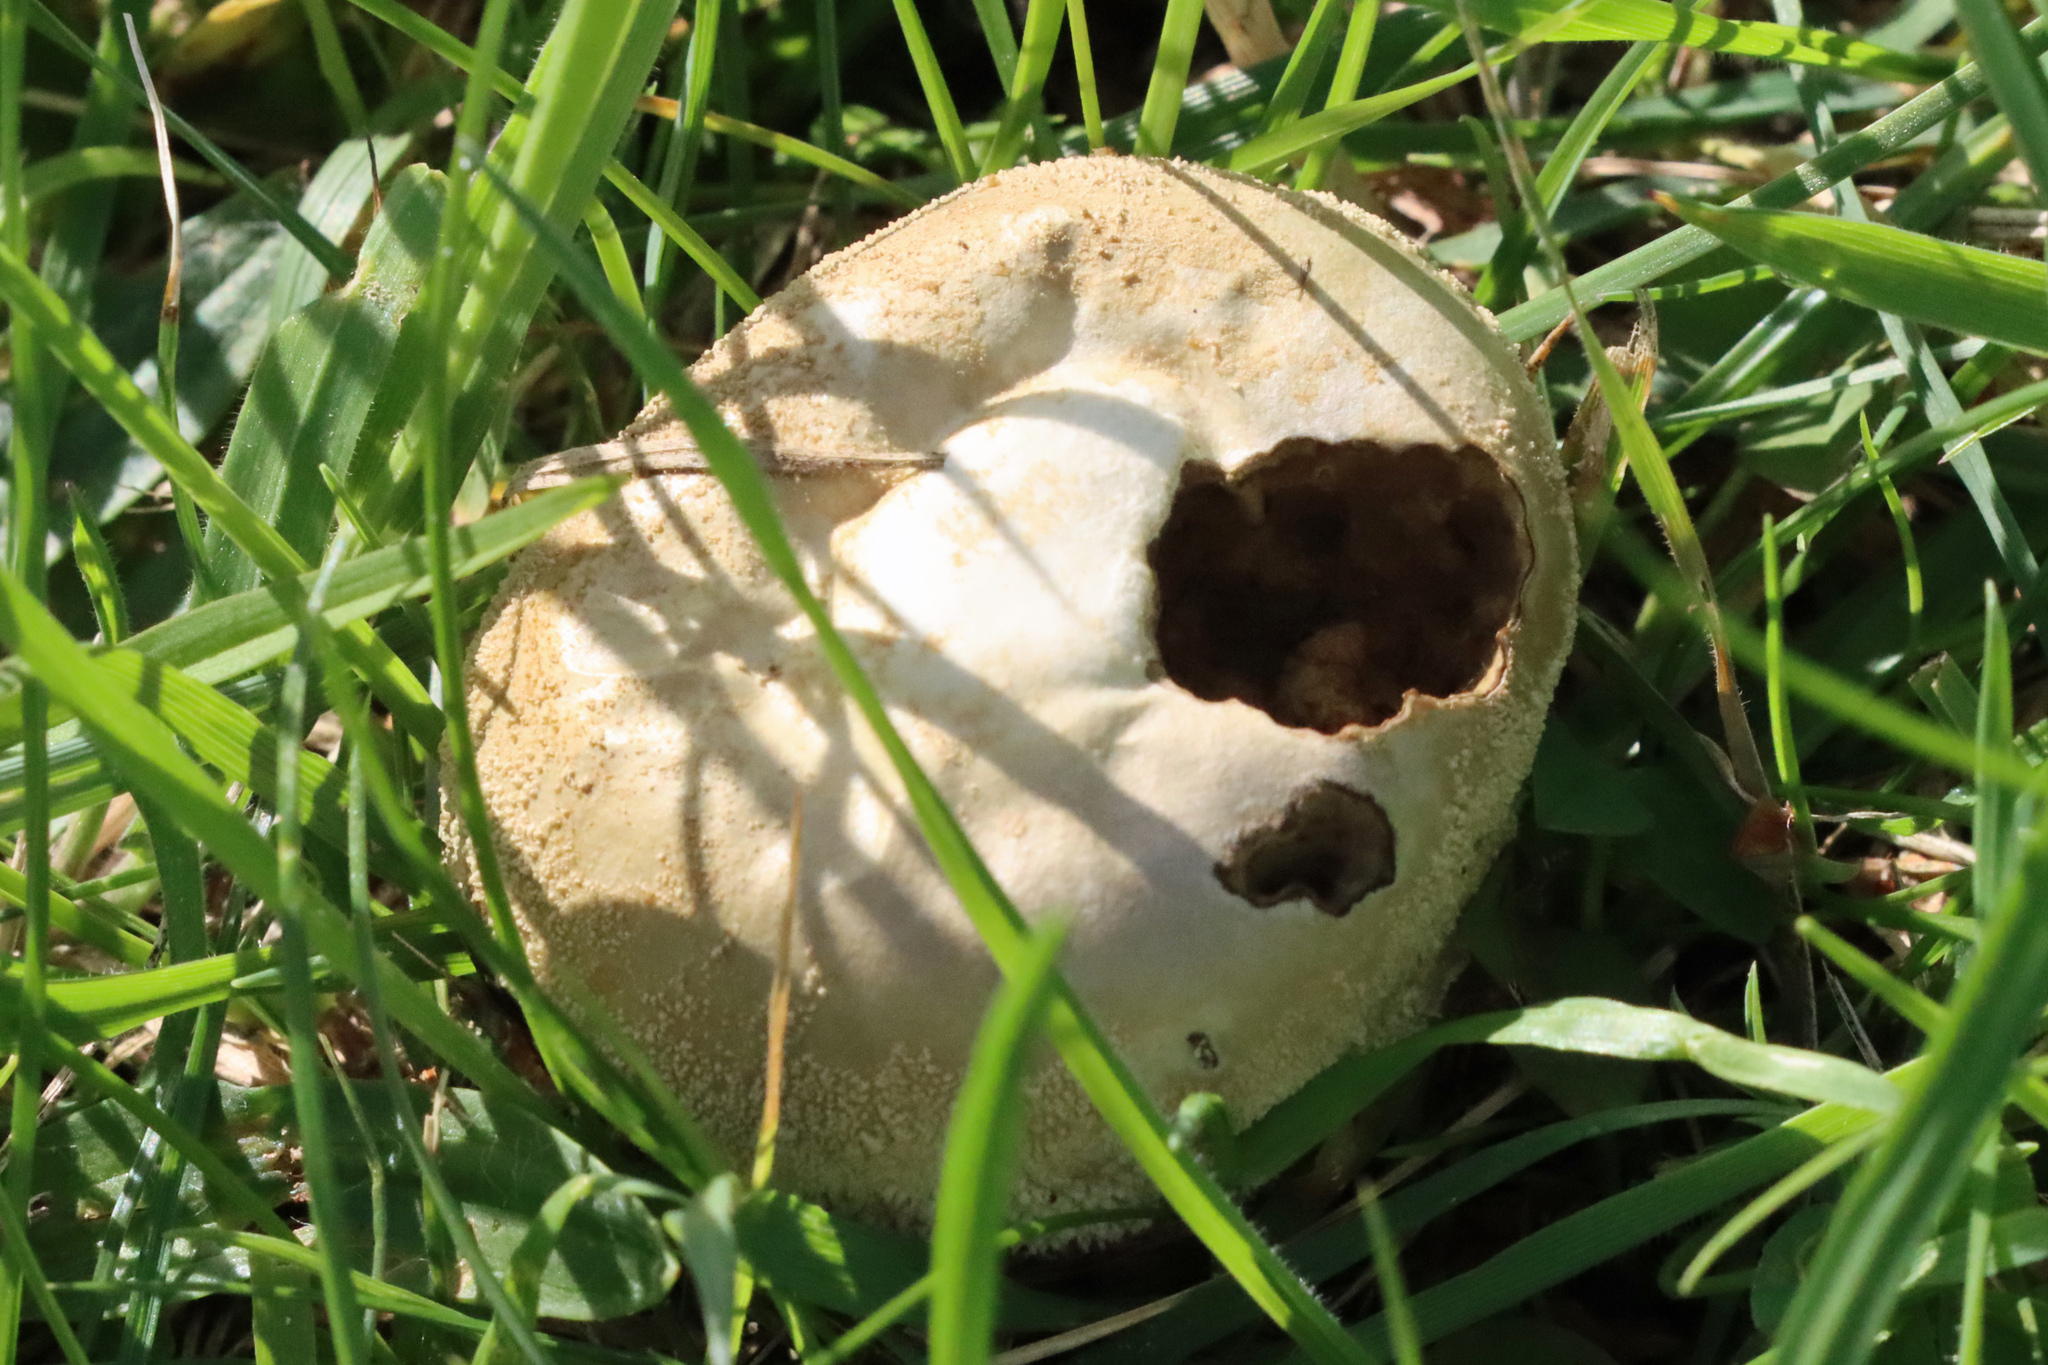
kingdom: Fungi
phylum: Basidiomycota
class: Agaricomycetes
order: Agaricales
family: Lycoperdaceae
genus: Lycoperdon
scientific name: Lycoperdon perlatum
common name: Common puffball
